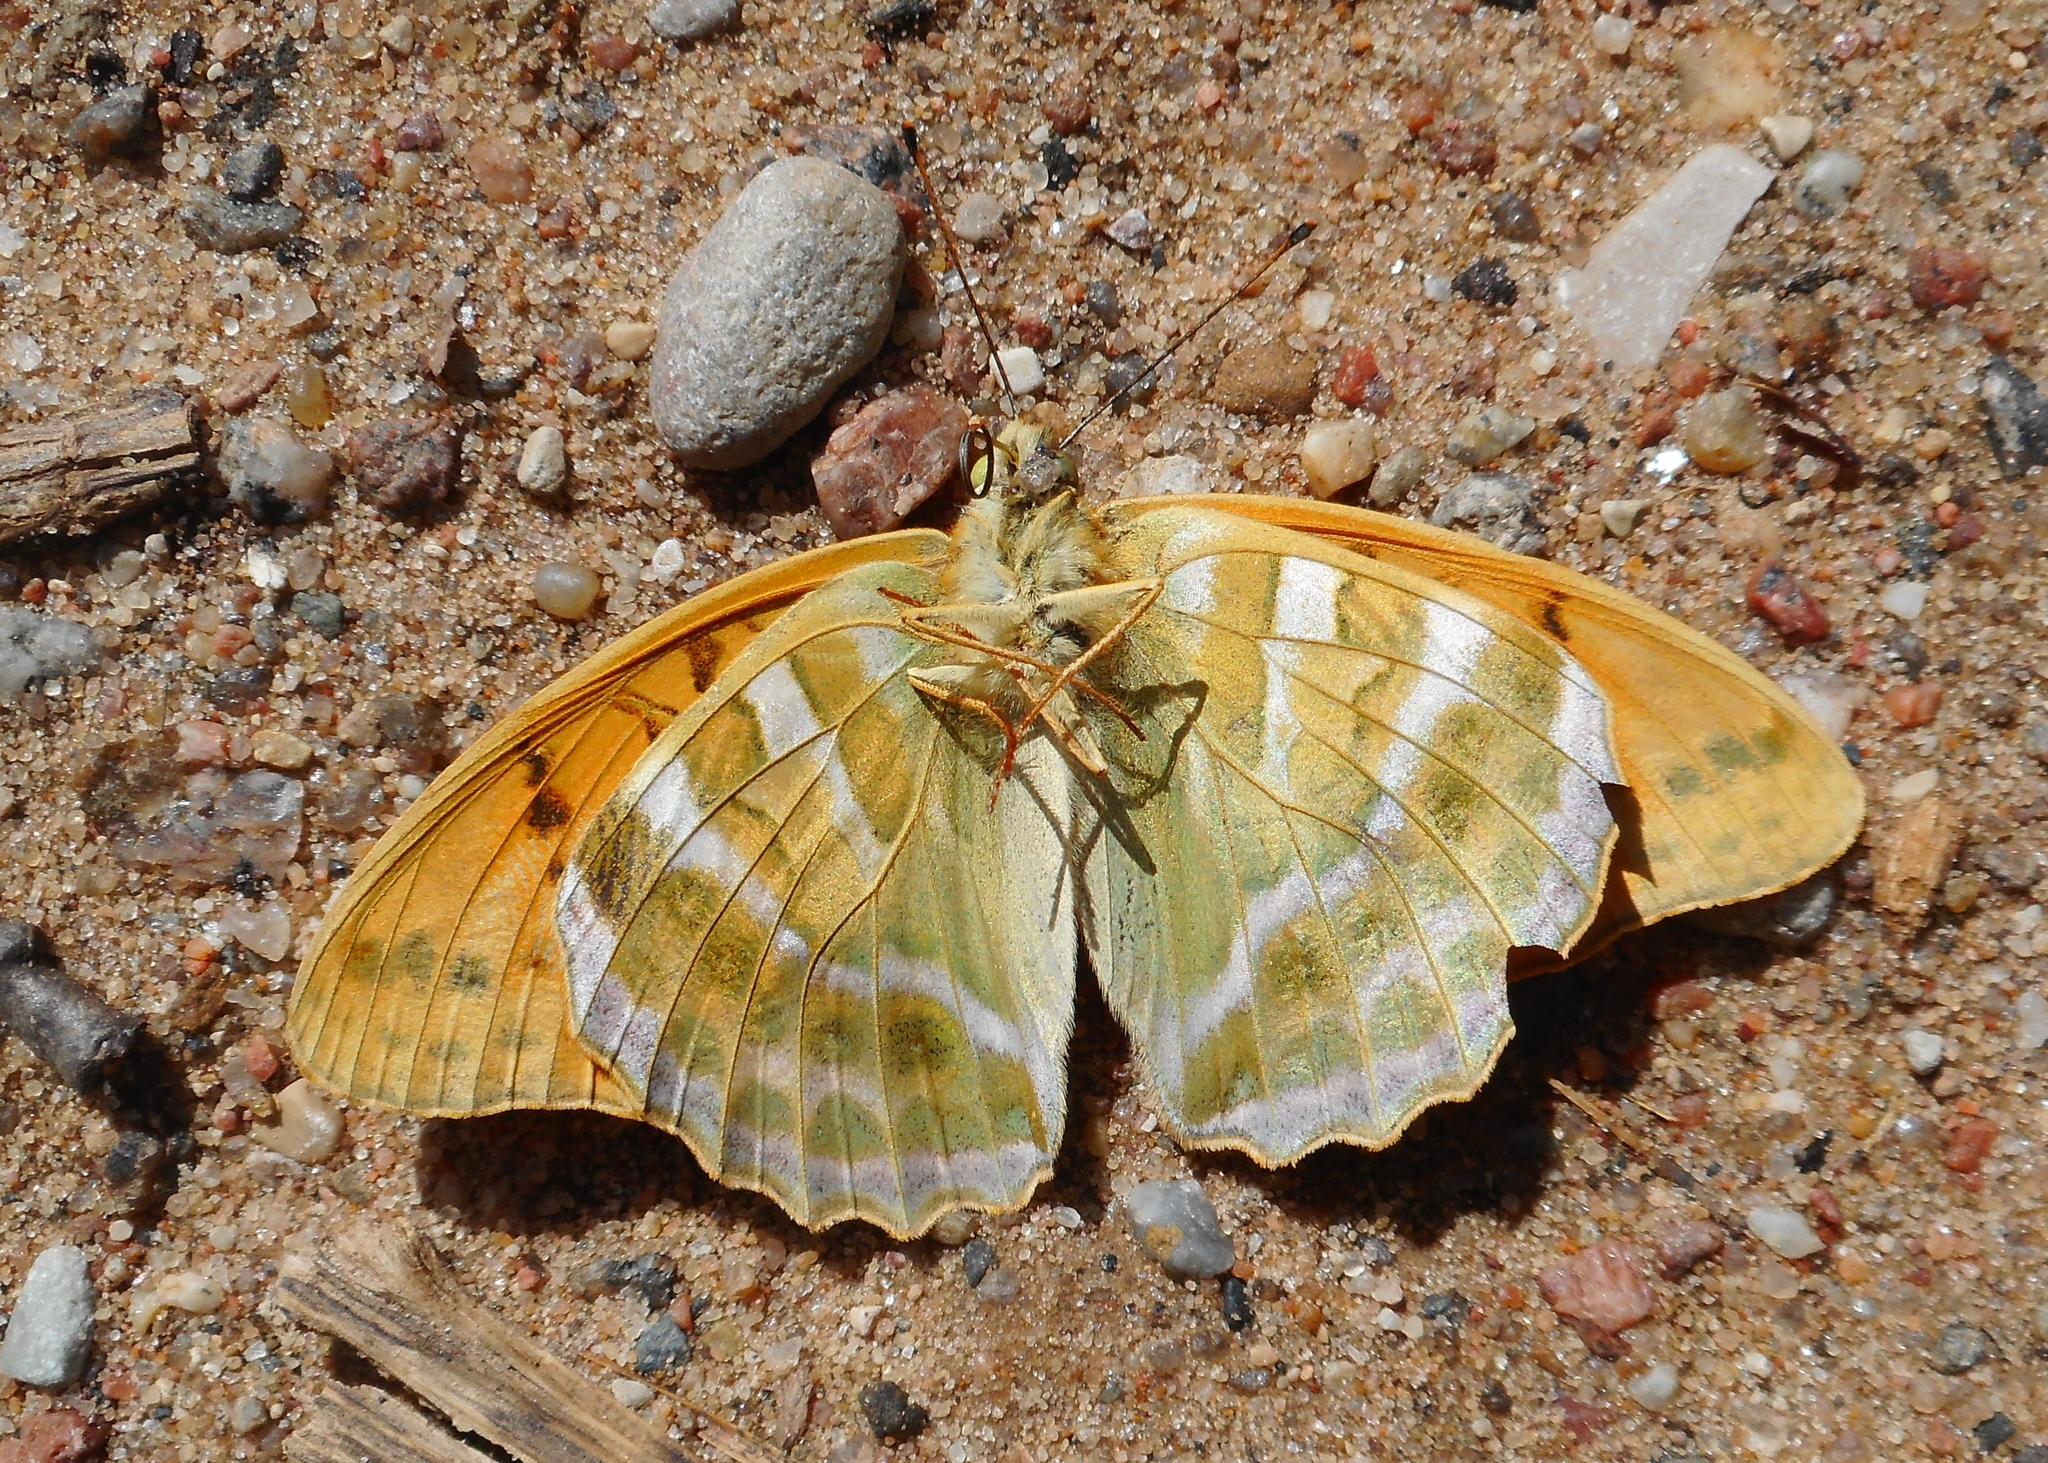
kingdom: Animalia
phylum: Arthropoda
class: Insecta
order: Lepidoptera
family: Nymphalidae
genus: Argynnis
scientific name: Argynnis paphia
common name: Silver-washed fritillary
